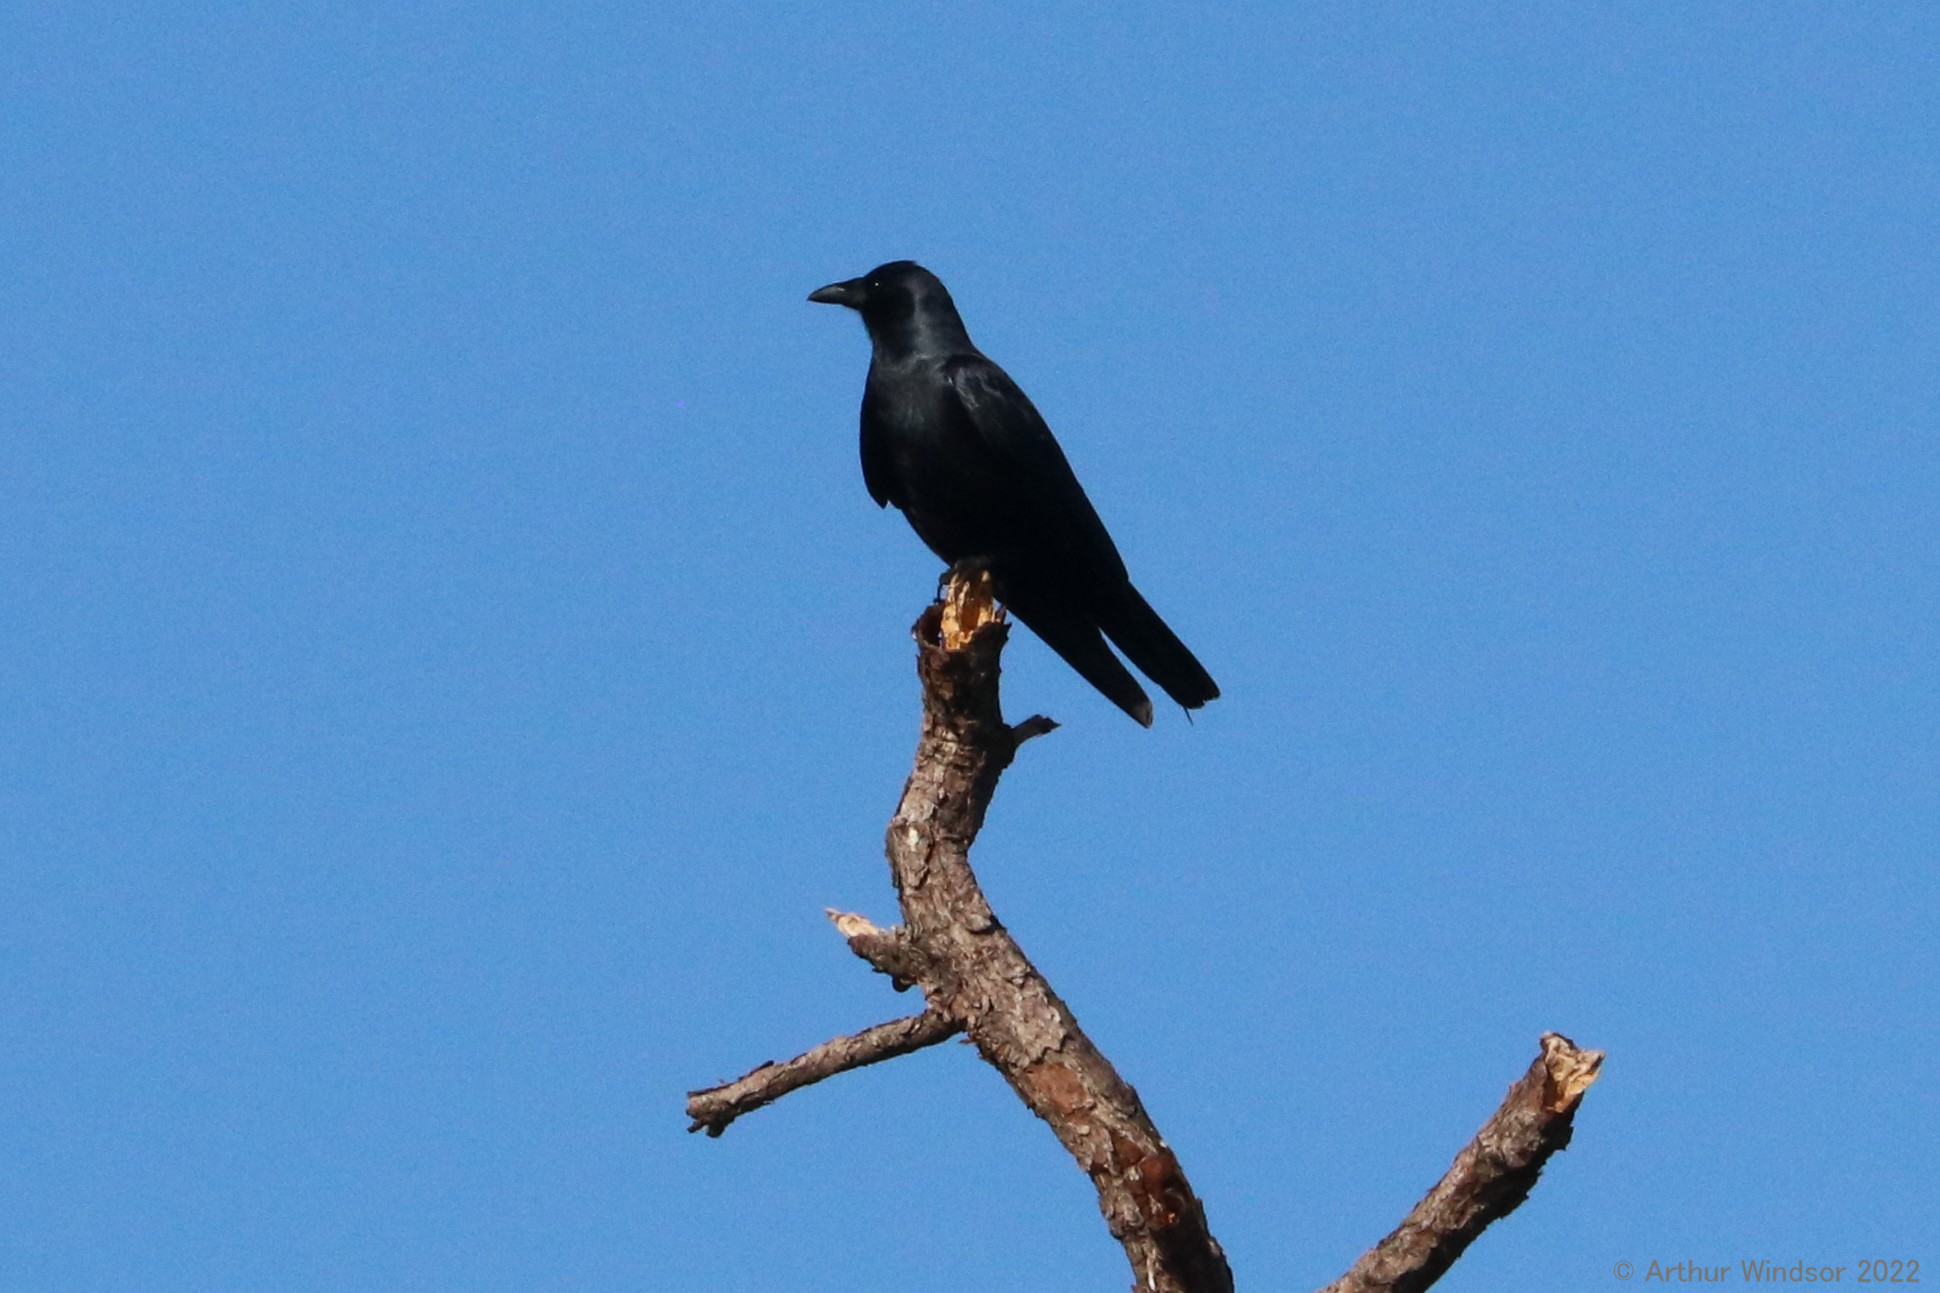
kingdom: Animalia
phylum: Chordata
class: Aves
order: Passeriformes
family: Corvidae
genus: Corvus
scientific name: Corvus ossifragus
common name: Fish crow
